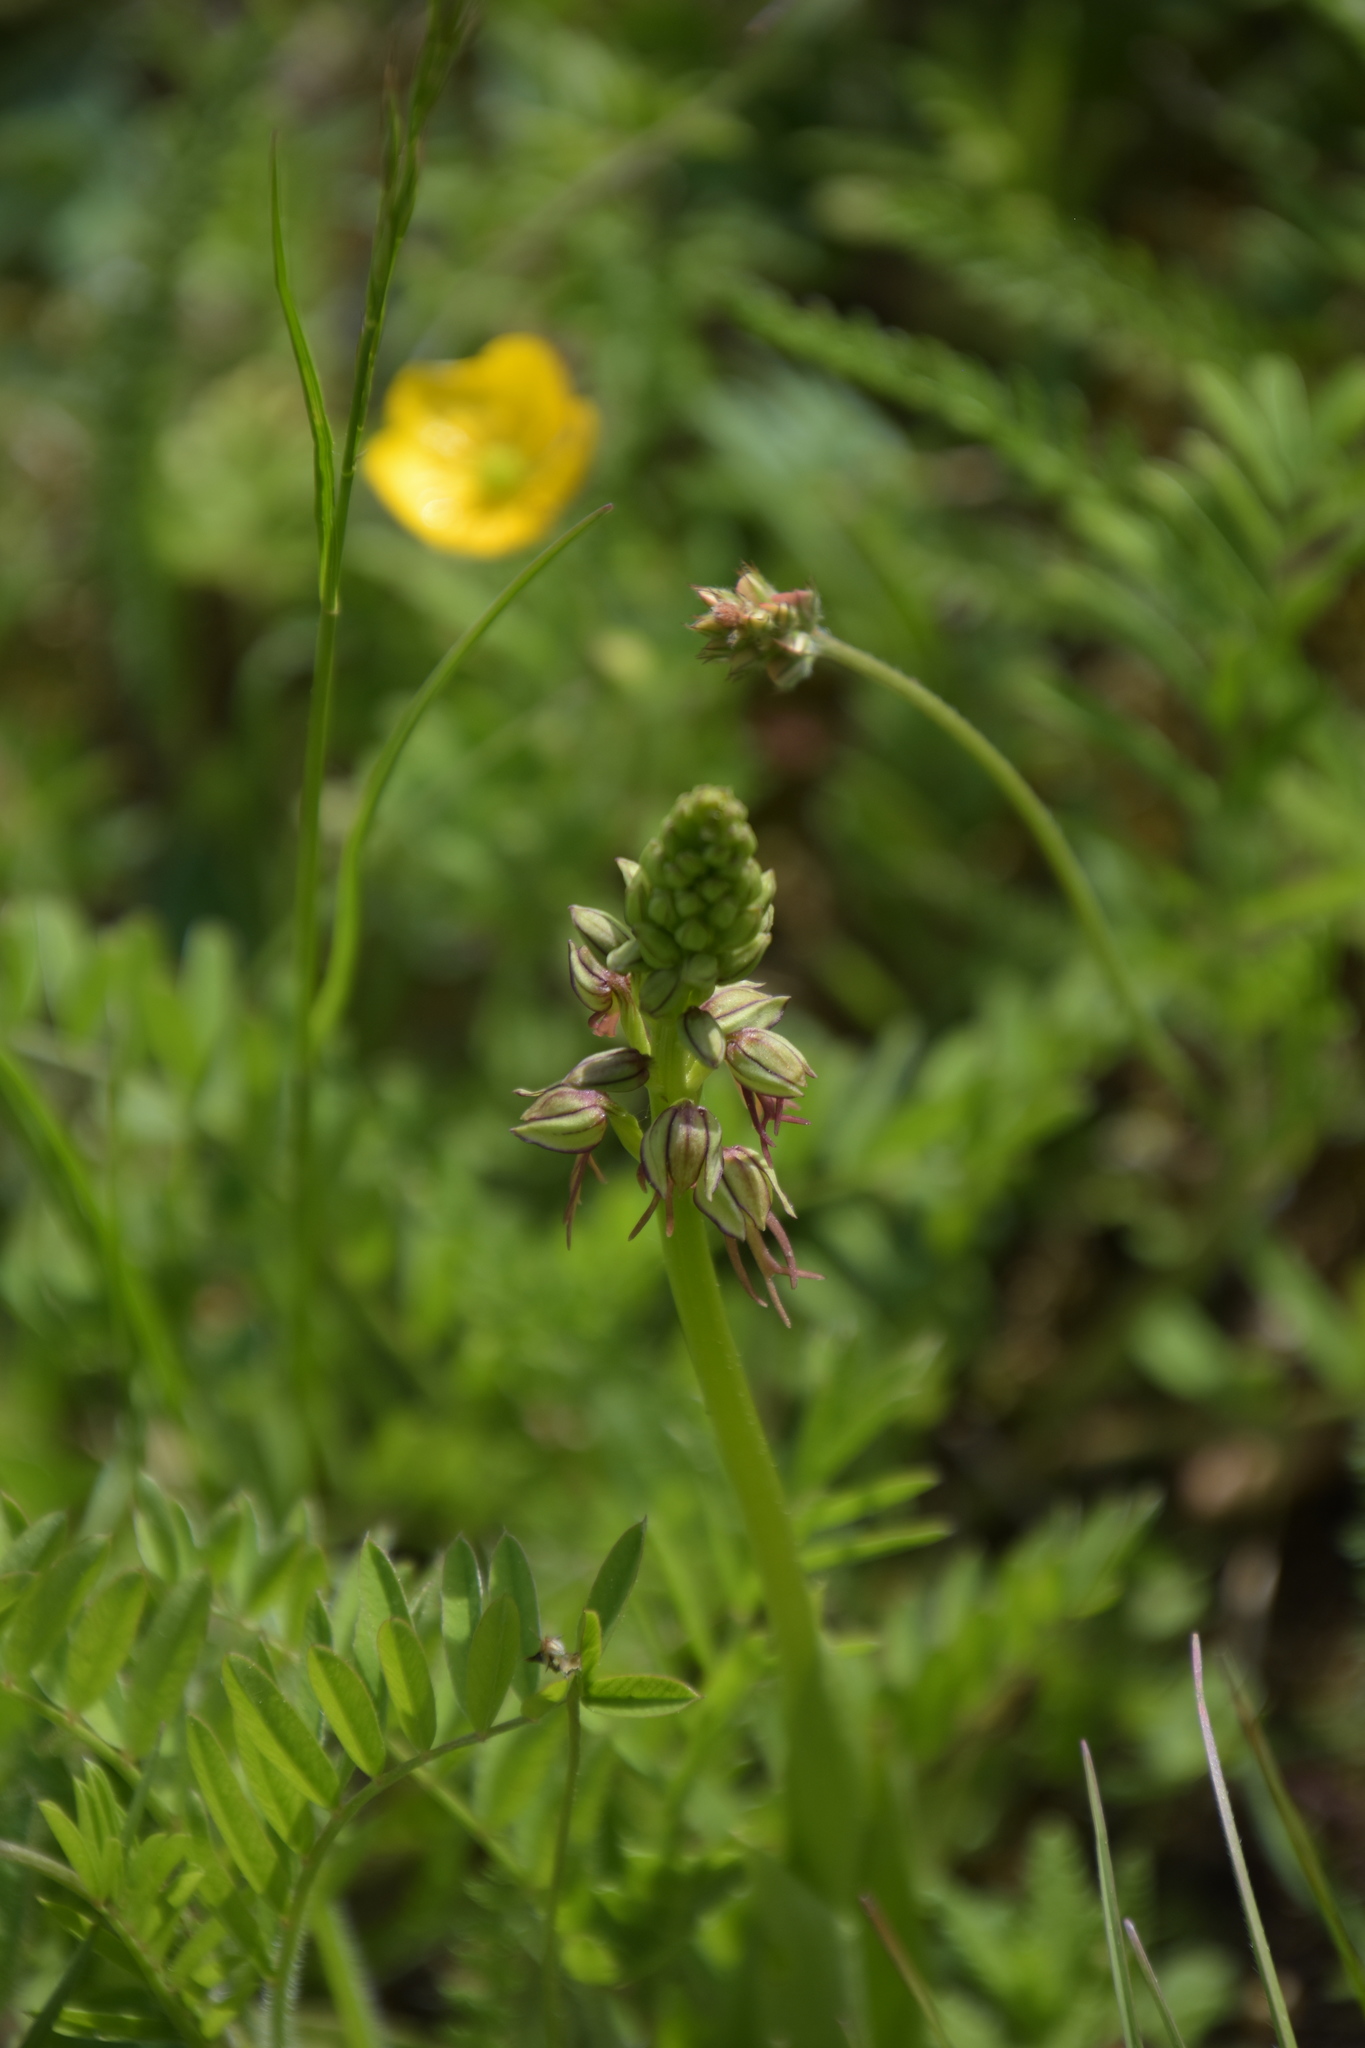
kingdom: Plantae
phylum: Tracheophyta
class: Liliopsida
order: Asparagales
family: Orchidaceae
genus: Orchis
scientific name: Orchis anthropophora
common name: Man orchid
